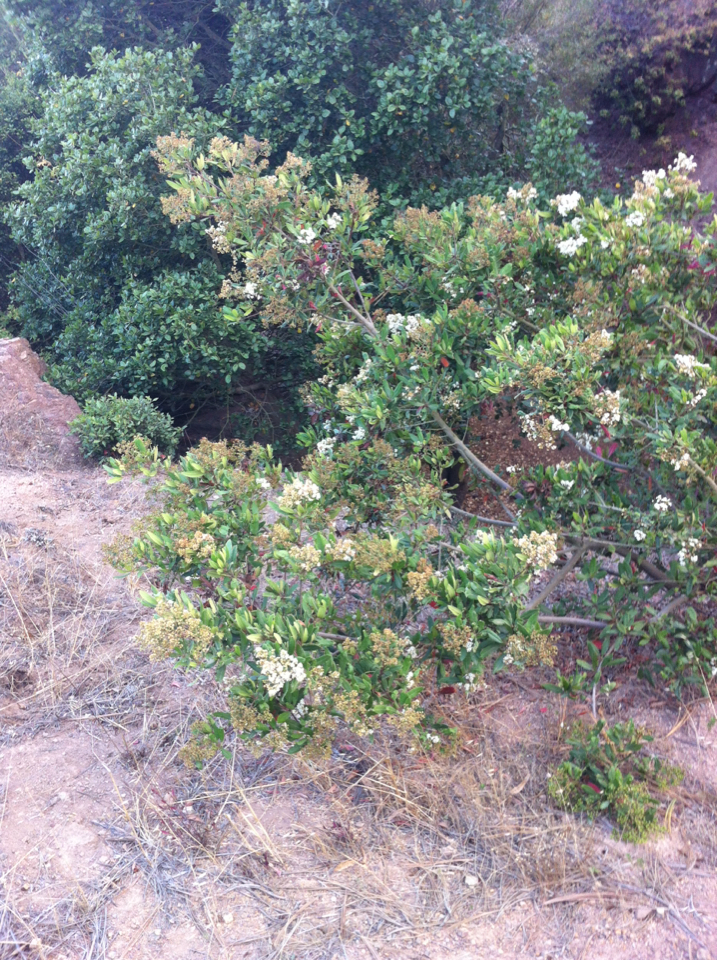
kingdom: Plantae
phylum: Tracheophyta
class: Magnoliopsida
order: Rosales
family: Rosaceae
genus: Heteromeles
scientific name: Heteromeles arbutifolia
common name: California-holly
